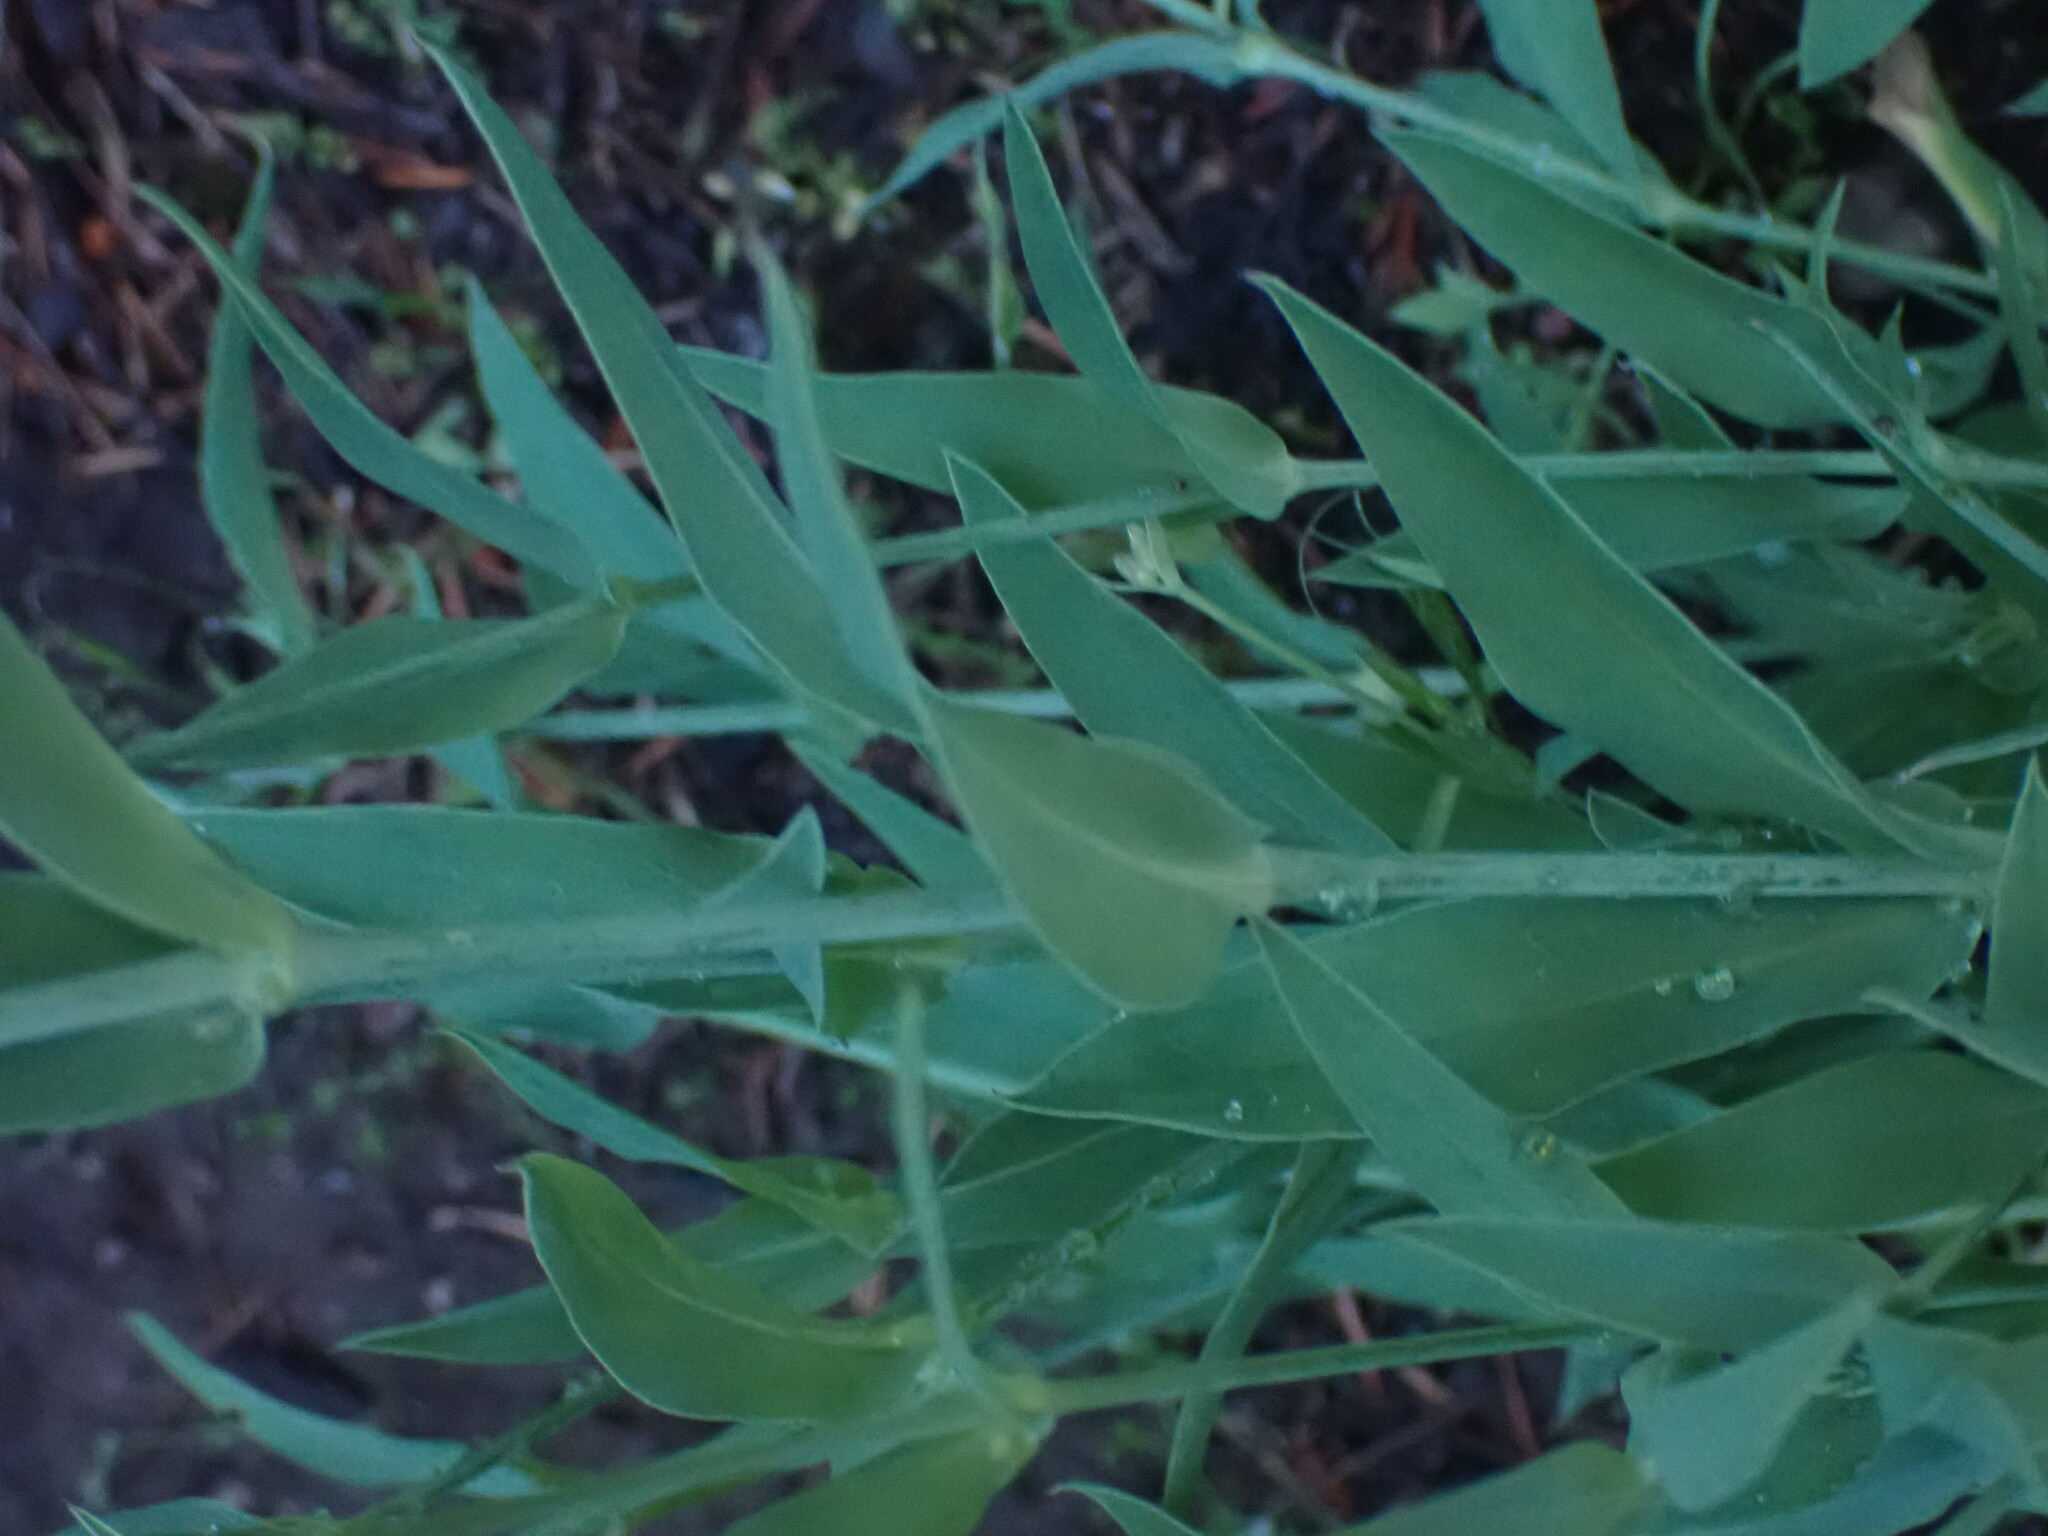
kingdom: Plantae
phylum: Tracheophyta
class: Magnoliopsida
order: Caryophyllales
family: Caryophyllaceae
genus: Silene
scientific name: Silene vulgaris
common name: Bladder campion
